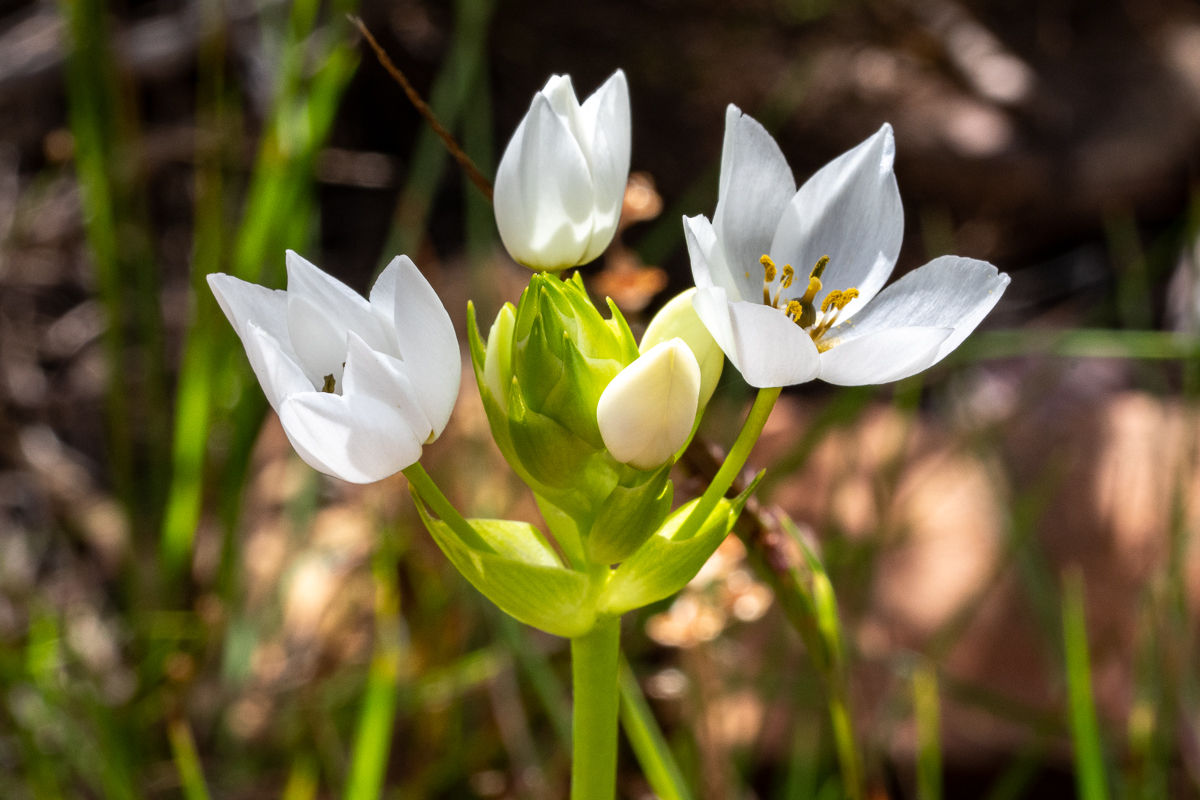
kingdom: Plantae
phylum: Tracheophyta
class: Liliopsida
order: Asparagales
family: Asparagaceae
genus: Ornithogalum
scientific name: Ornithogalum thyrsoides
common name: Chincherinchee
